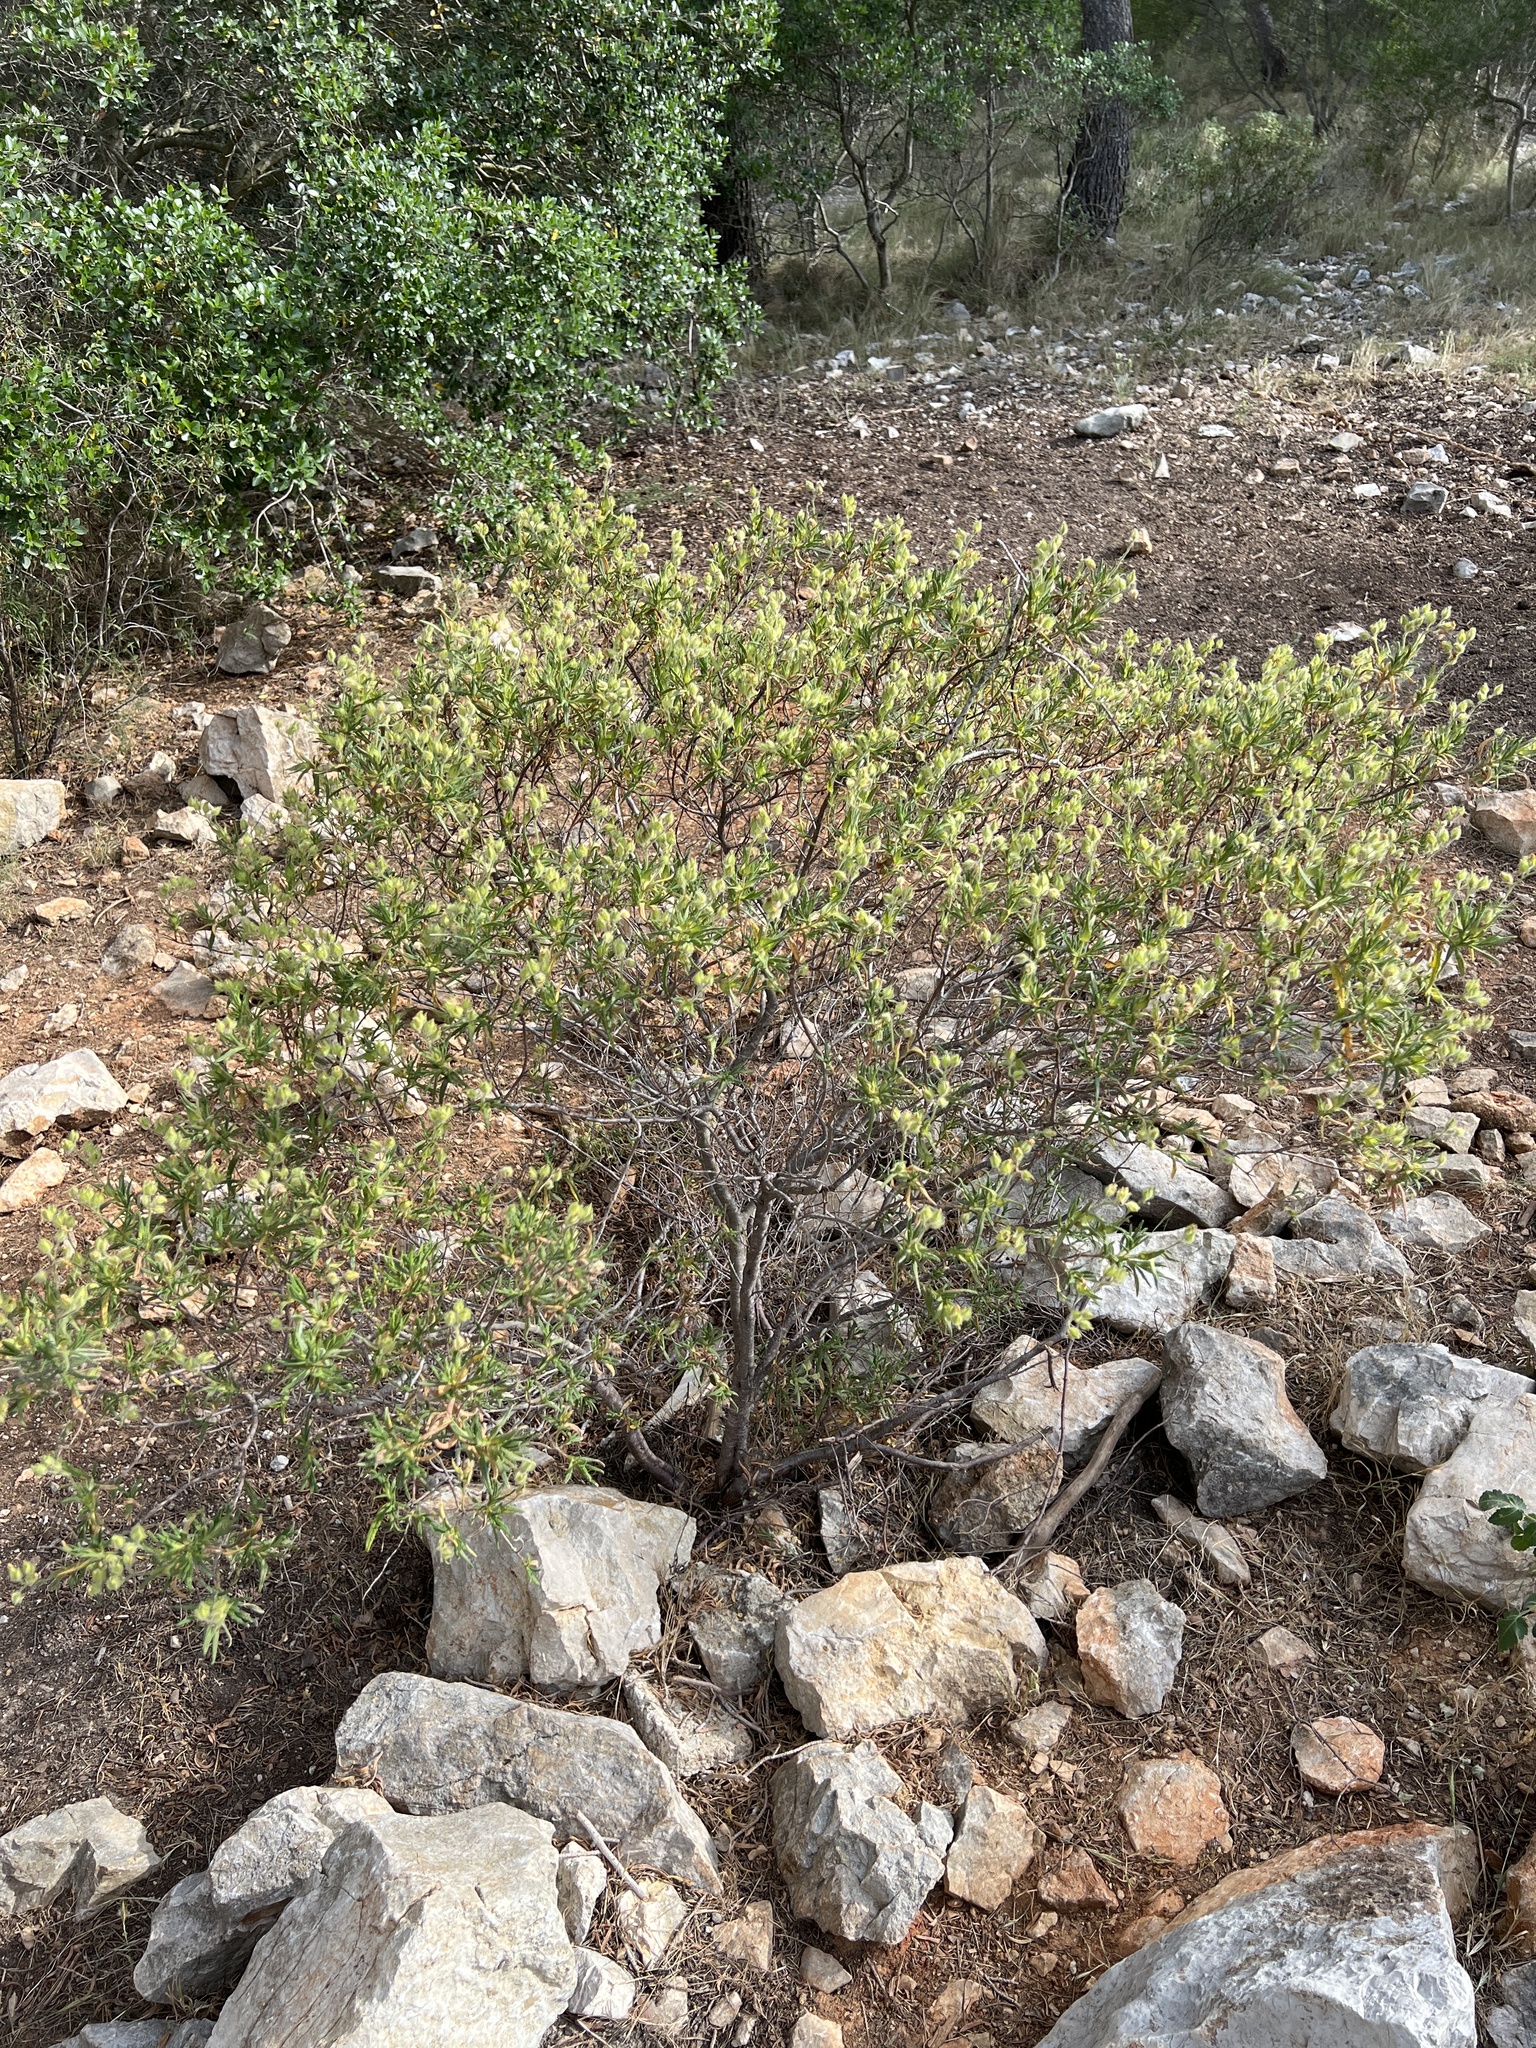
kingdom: Plantae
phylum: Tracheophyta
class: Magnoliopsida
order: Malvales
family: Cistaceae
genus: Cistus
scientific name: Cistus monspeliensis
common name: Montpelier cistus
